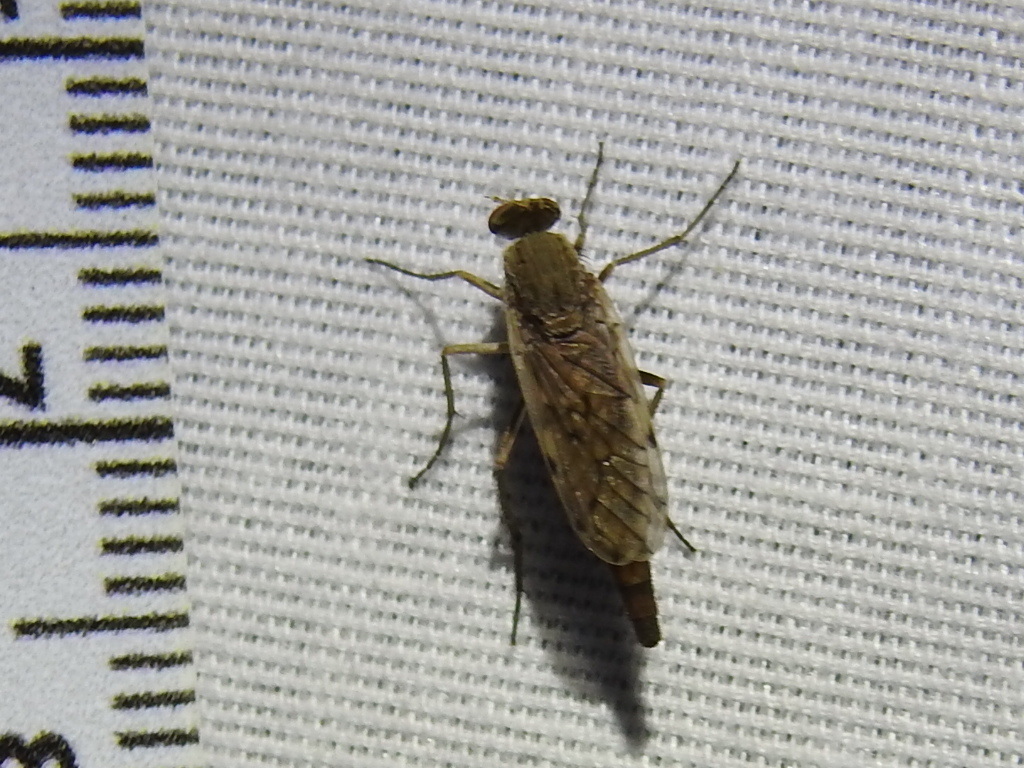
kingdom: Animalia
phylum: Arthropoda
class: Insecta
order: Diptera
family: Therevidae
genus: Litolinga
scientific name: Litolinga acuta
